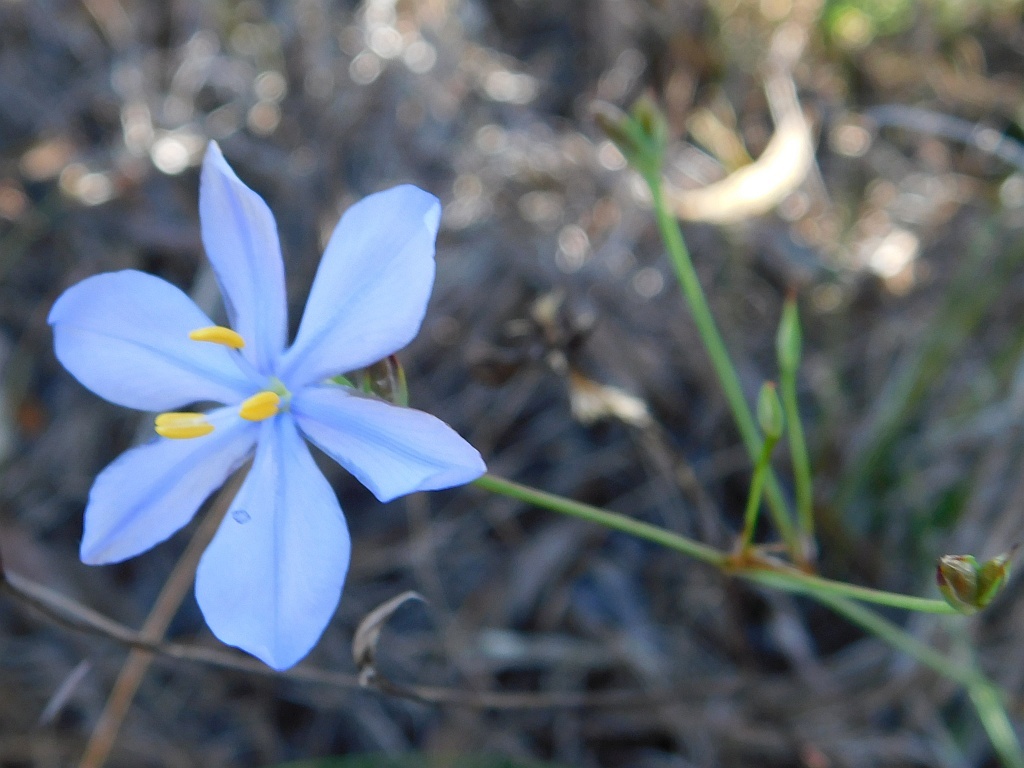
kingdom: Plantae
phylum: Tracheophyta
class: Liliopsida
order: Asparagales
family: Iridaceae
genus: Aristea
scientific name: Aristea dichotoma
